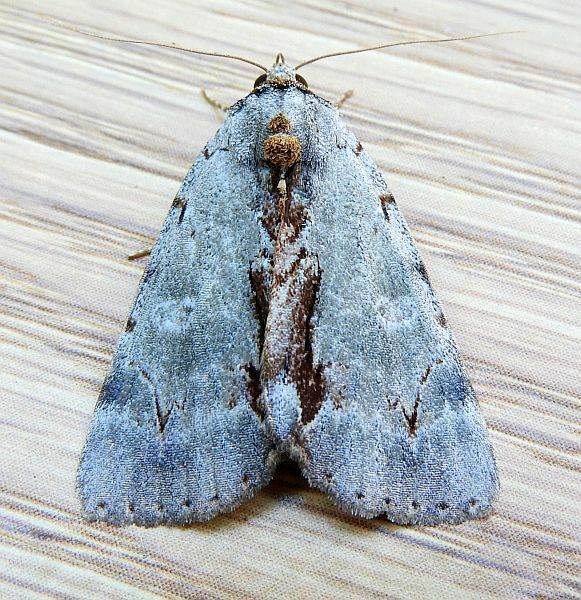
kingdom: Animalia
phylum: Arthropoda
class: Insecta
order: Lepidoptera
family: Erebidae
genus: Catocala
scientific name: Catocala grynea
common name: Woody underwing
